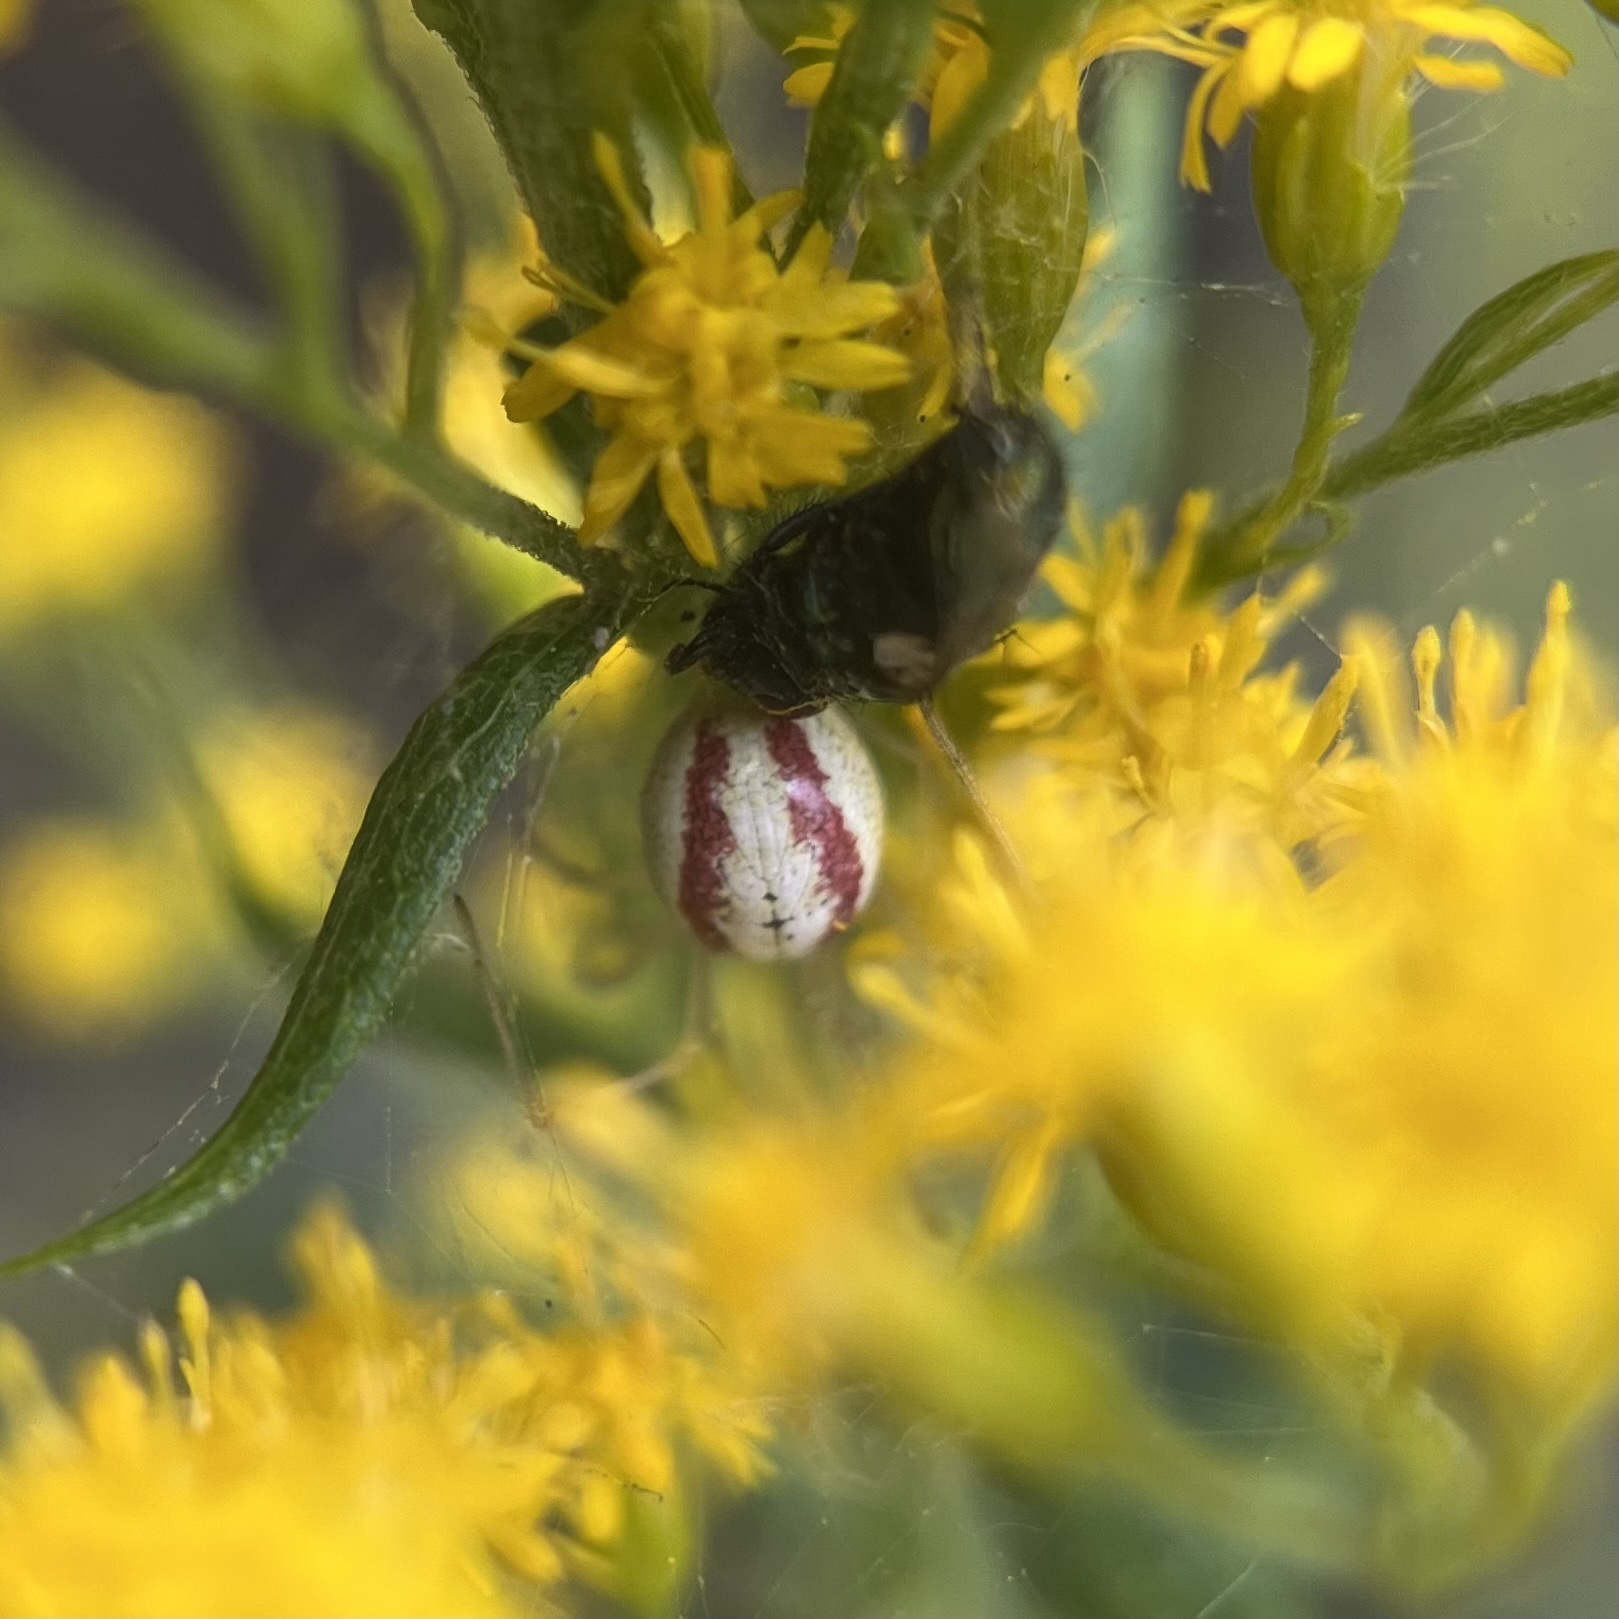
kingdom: Animalia
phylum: Arthropoda
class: Arachnida
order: Araneae
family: Theridiidae
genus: Enoplognatha
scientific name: Enoplognatha
